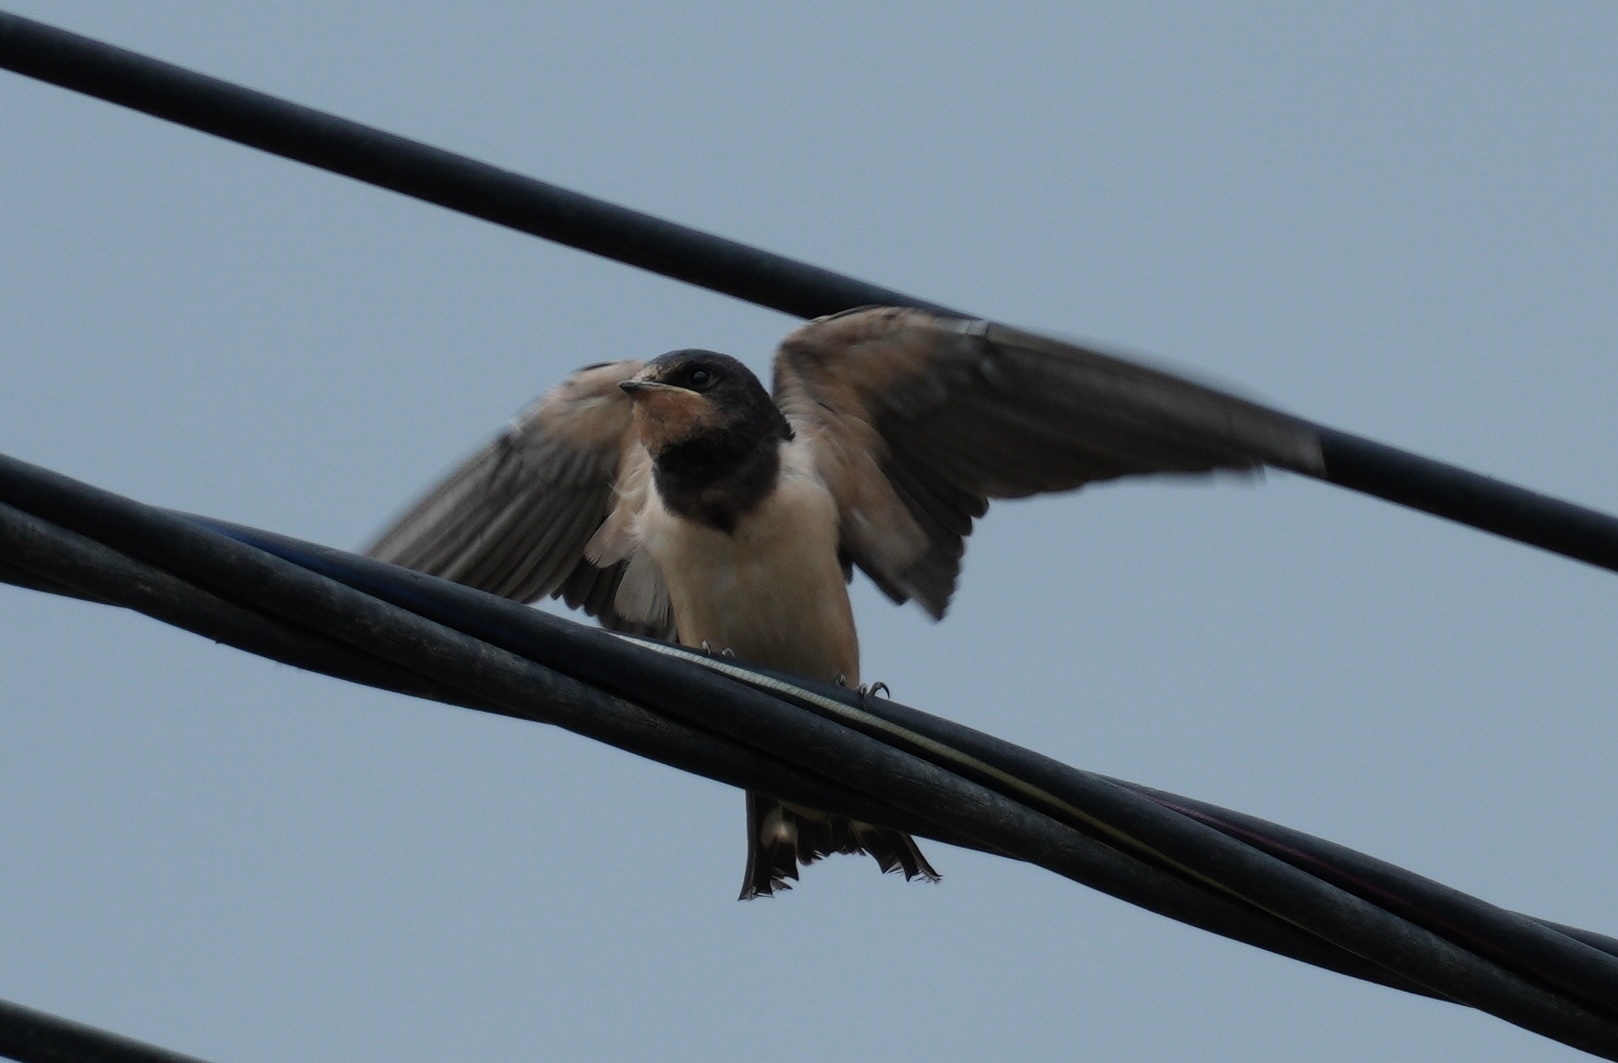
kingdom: Animalia
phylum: Chordata
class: Aves
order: Passeriformes
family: Hirundinidae
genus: Hirundo
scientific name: Hirundo rustica
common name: Barn swallow
